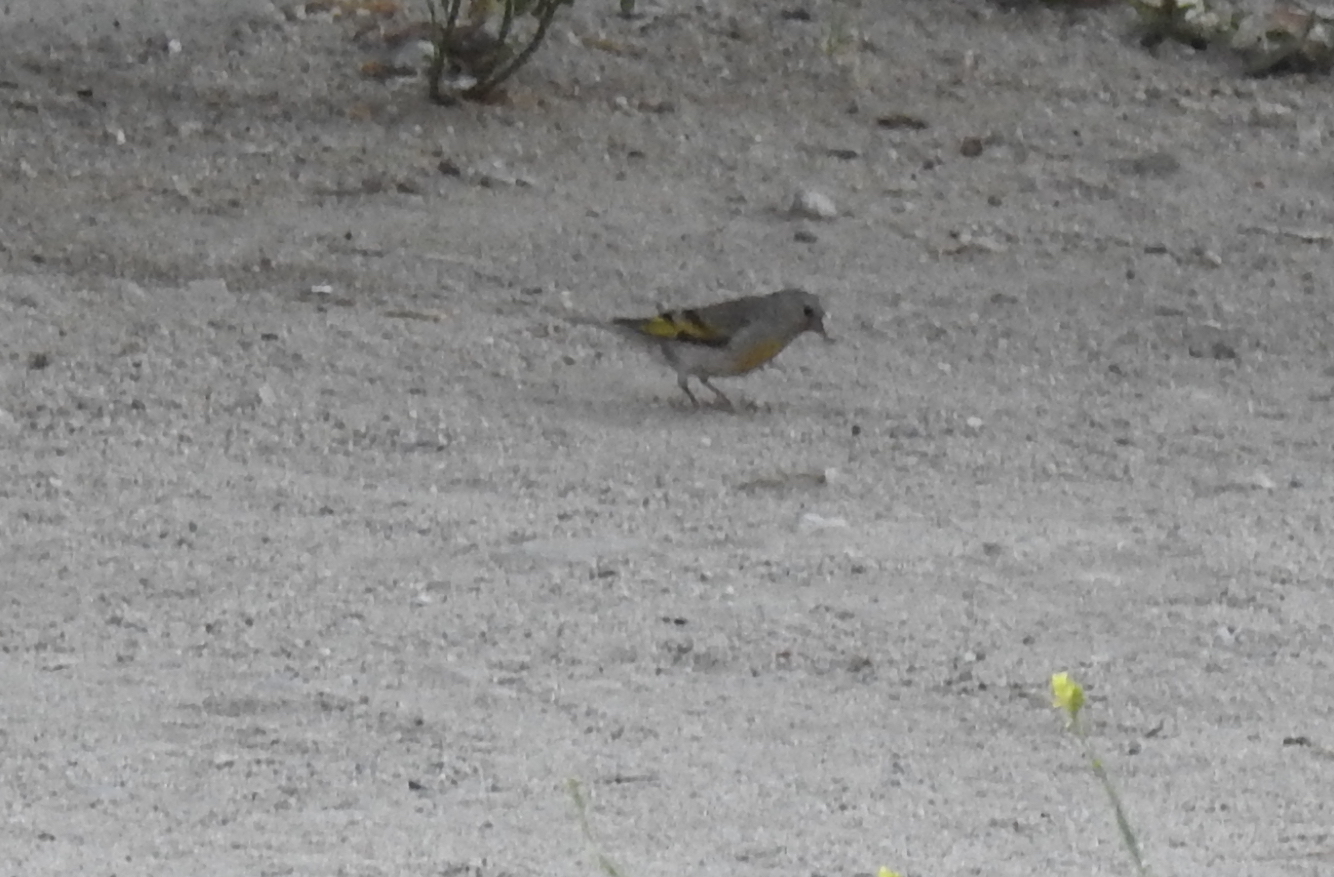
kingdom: Animalia
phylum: Chordata
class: Aves
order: Passeriformes
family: Fringillidae
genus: Spinus
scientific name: Spinus lawrencei
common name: Lawrence's goldfinch
